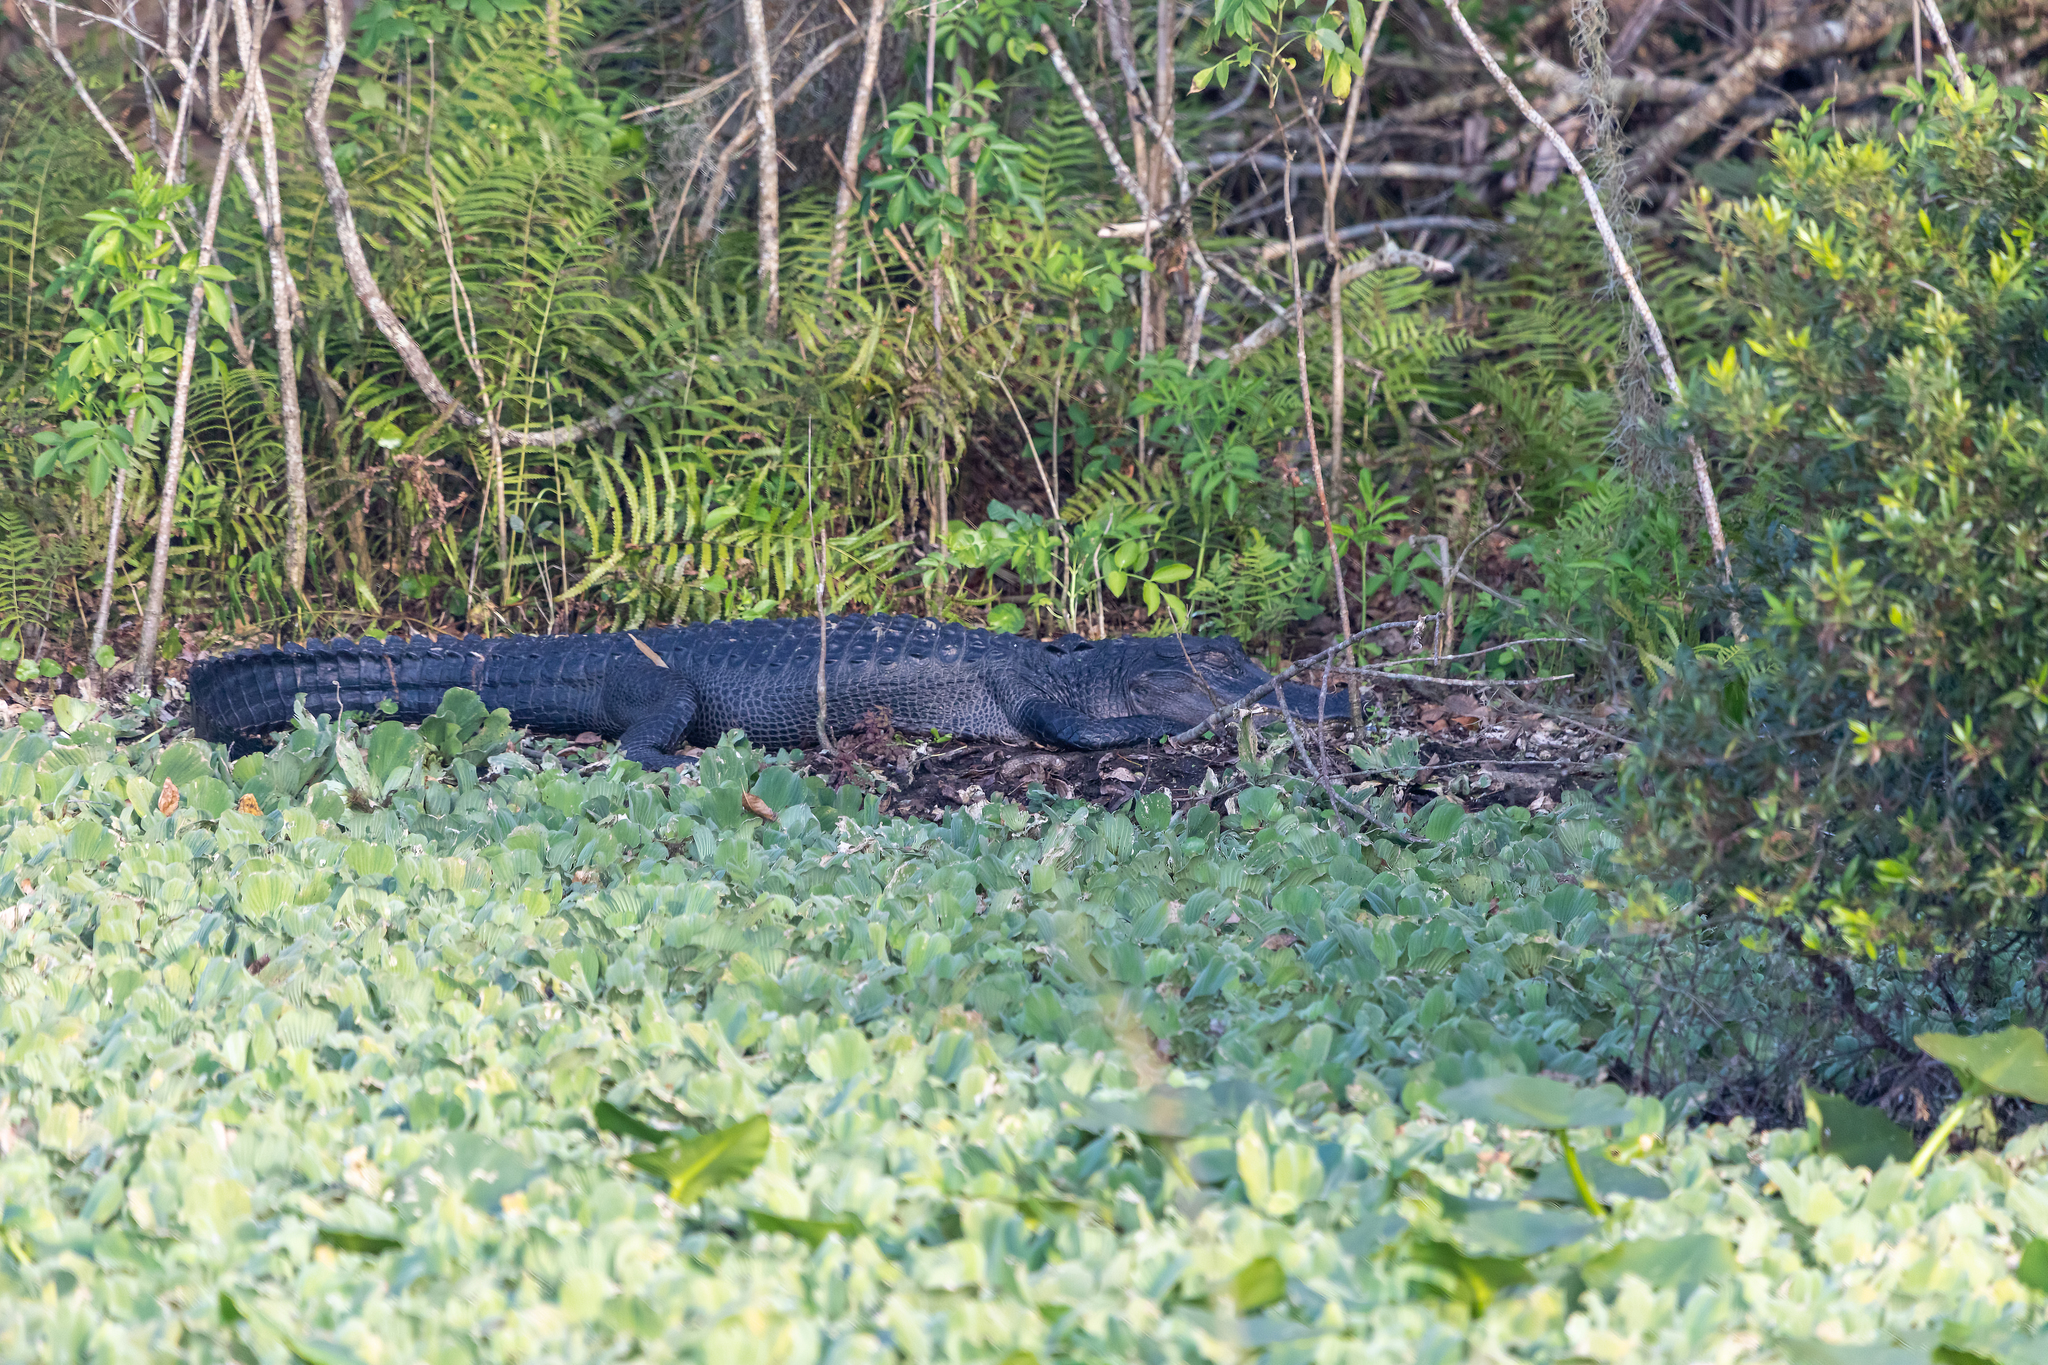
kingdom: Animalia
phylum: Chordata
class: Crocodylia
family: Alligatoridae
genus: Alligator
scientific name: Alligator mississippiensis
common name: American alligator
